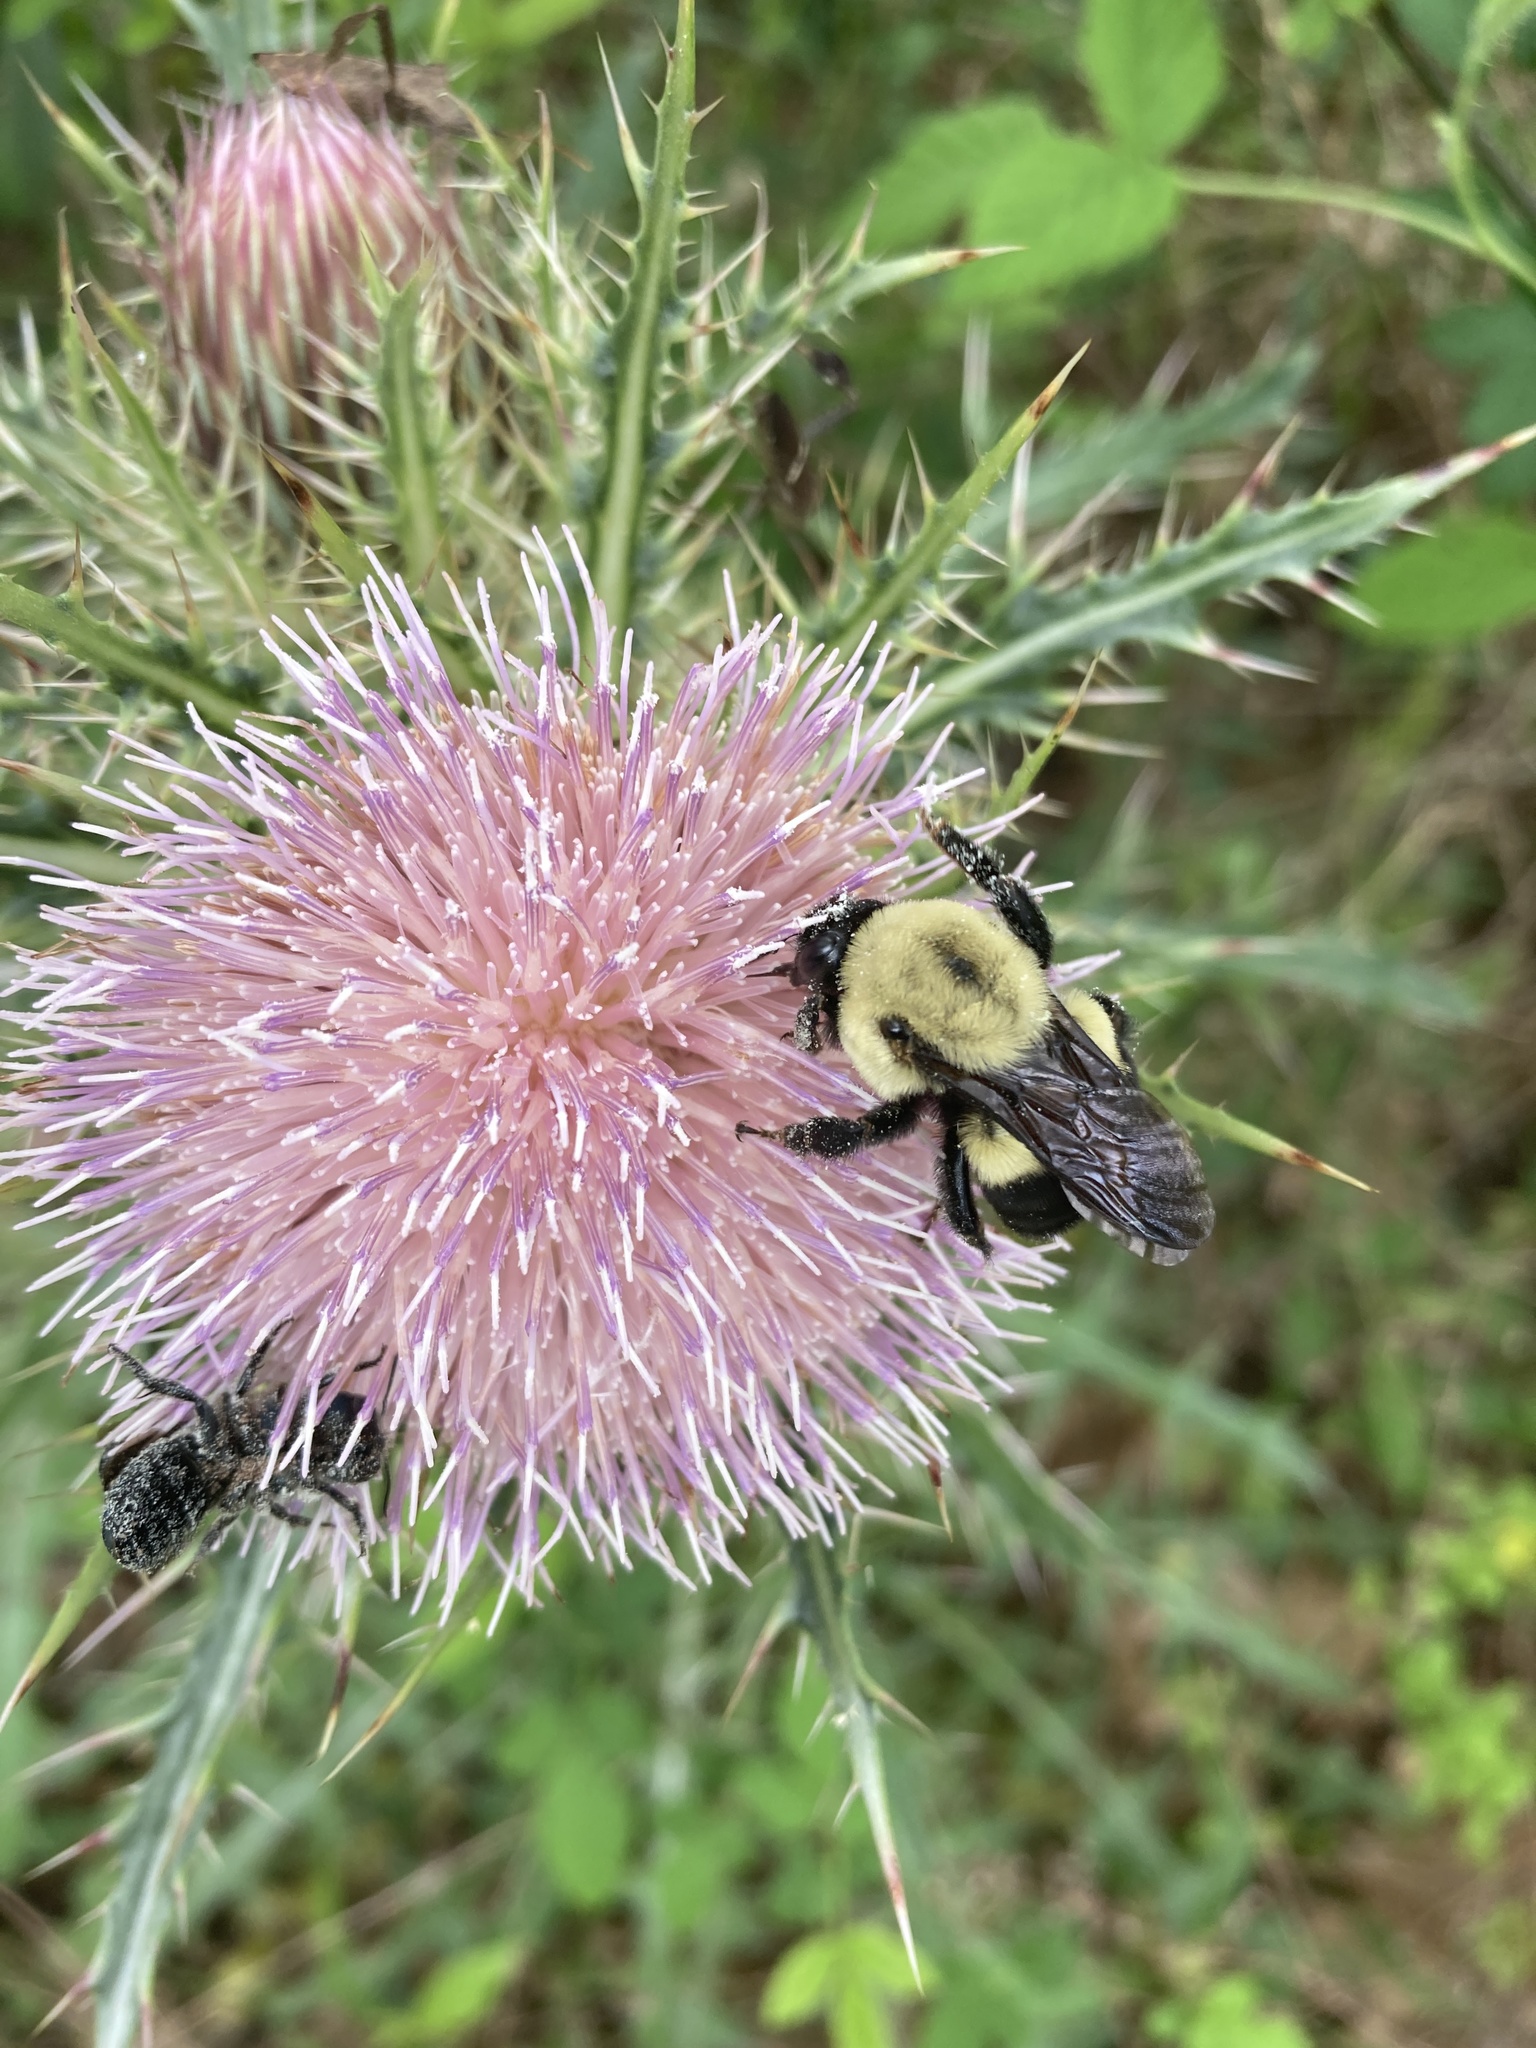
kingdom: Animalia
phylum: Arthropoda
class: Insecta
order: Hymenoptera
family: Apidae
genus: Bombus
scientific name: Bombus griseocollis
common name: Brown-belted bumble bee
